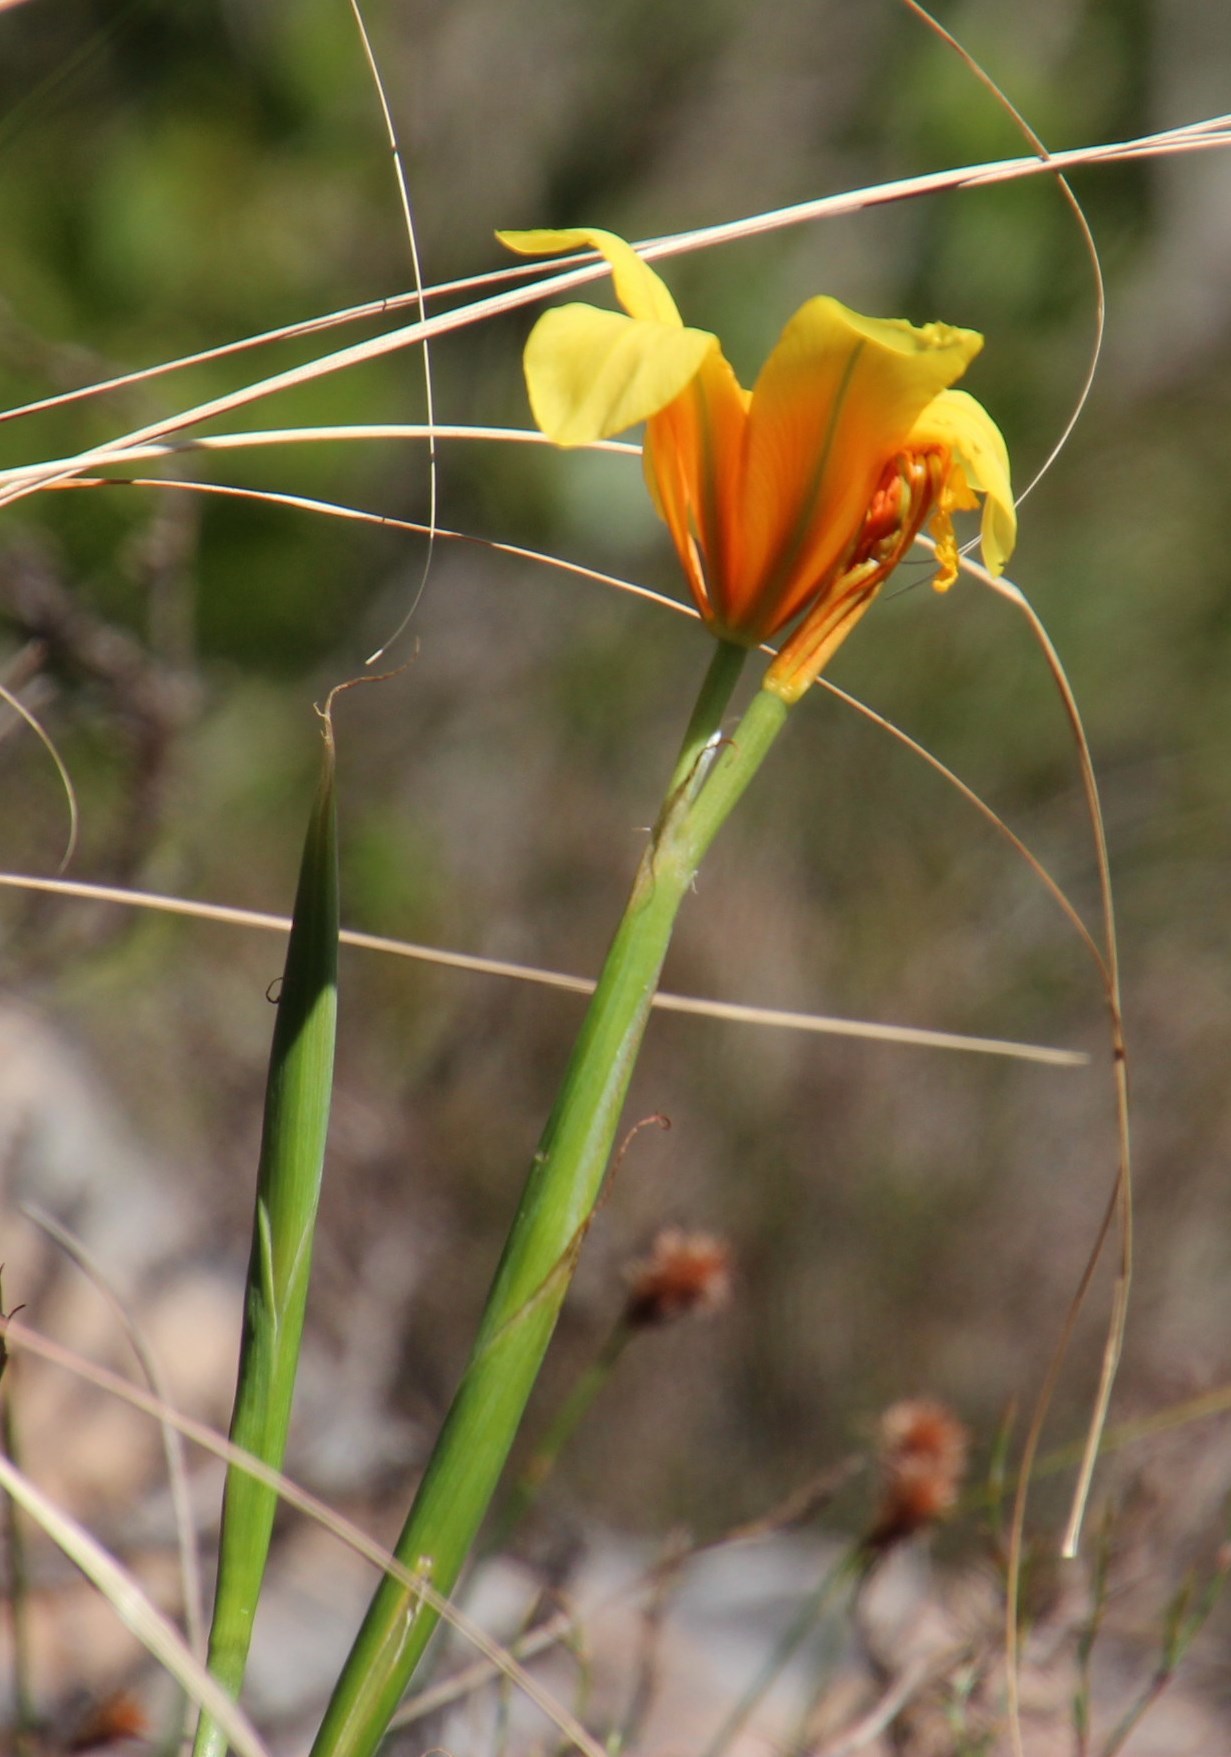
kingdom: Plantae
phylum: Tracheophyta
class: Liliopsida
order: Asparagales
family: Iridaceae
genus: Moraea
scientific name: Moraea ochroleuca
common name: Red tulp
